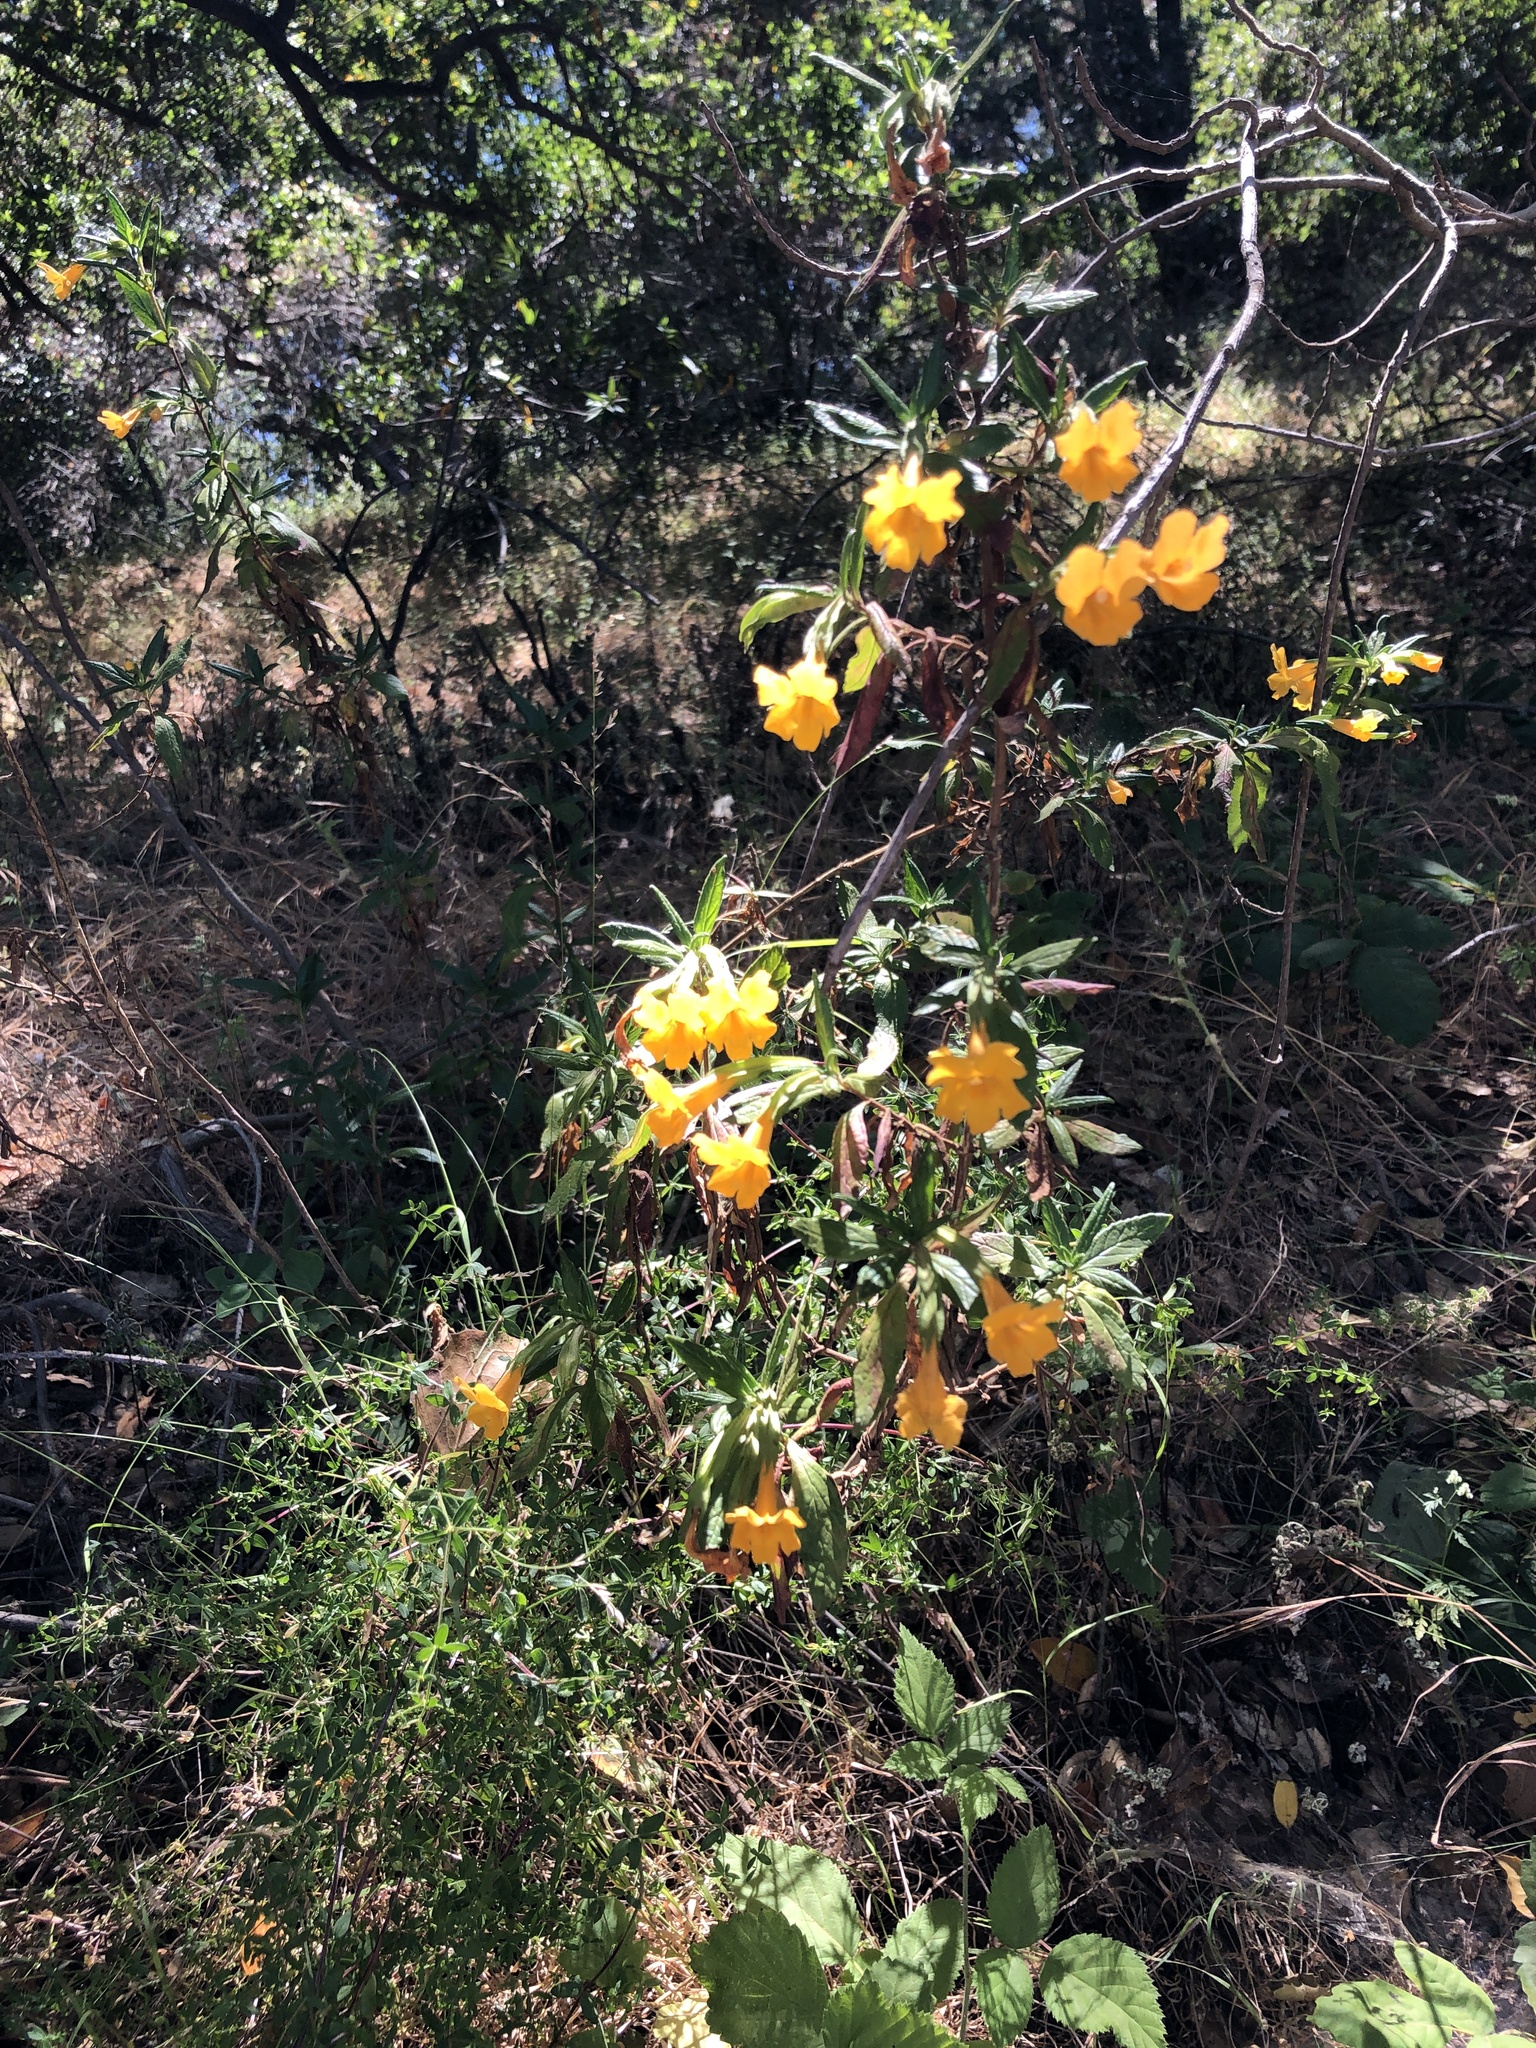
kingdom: Plantae
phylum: Tracheophyta
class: Magnoliopsida
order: Lamiales
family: Phrymaceae
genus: Diplacus
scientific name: Diplacus aurantiacus
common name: Bush monkey-flower
